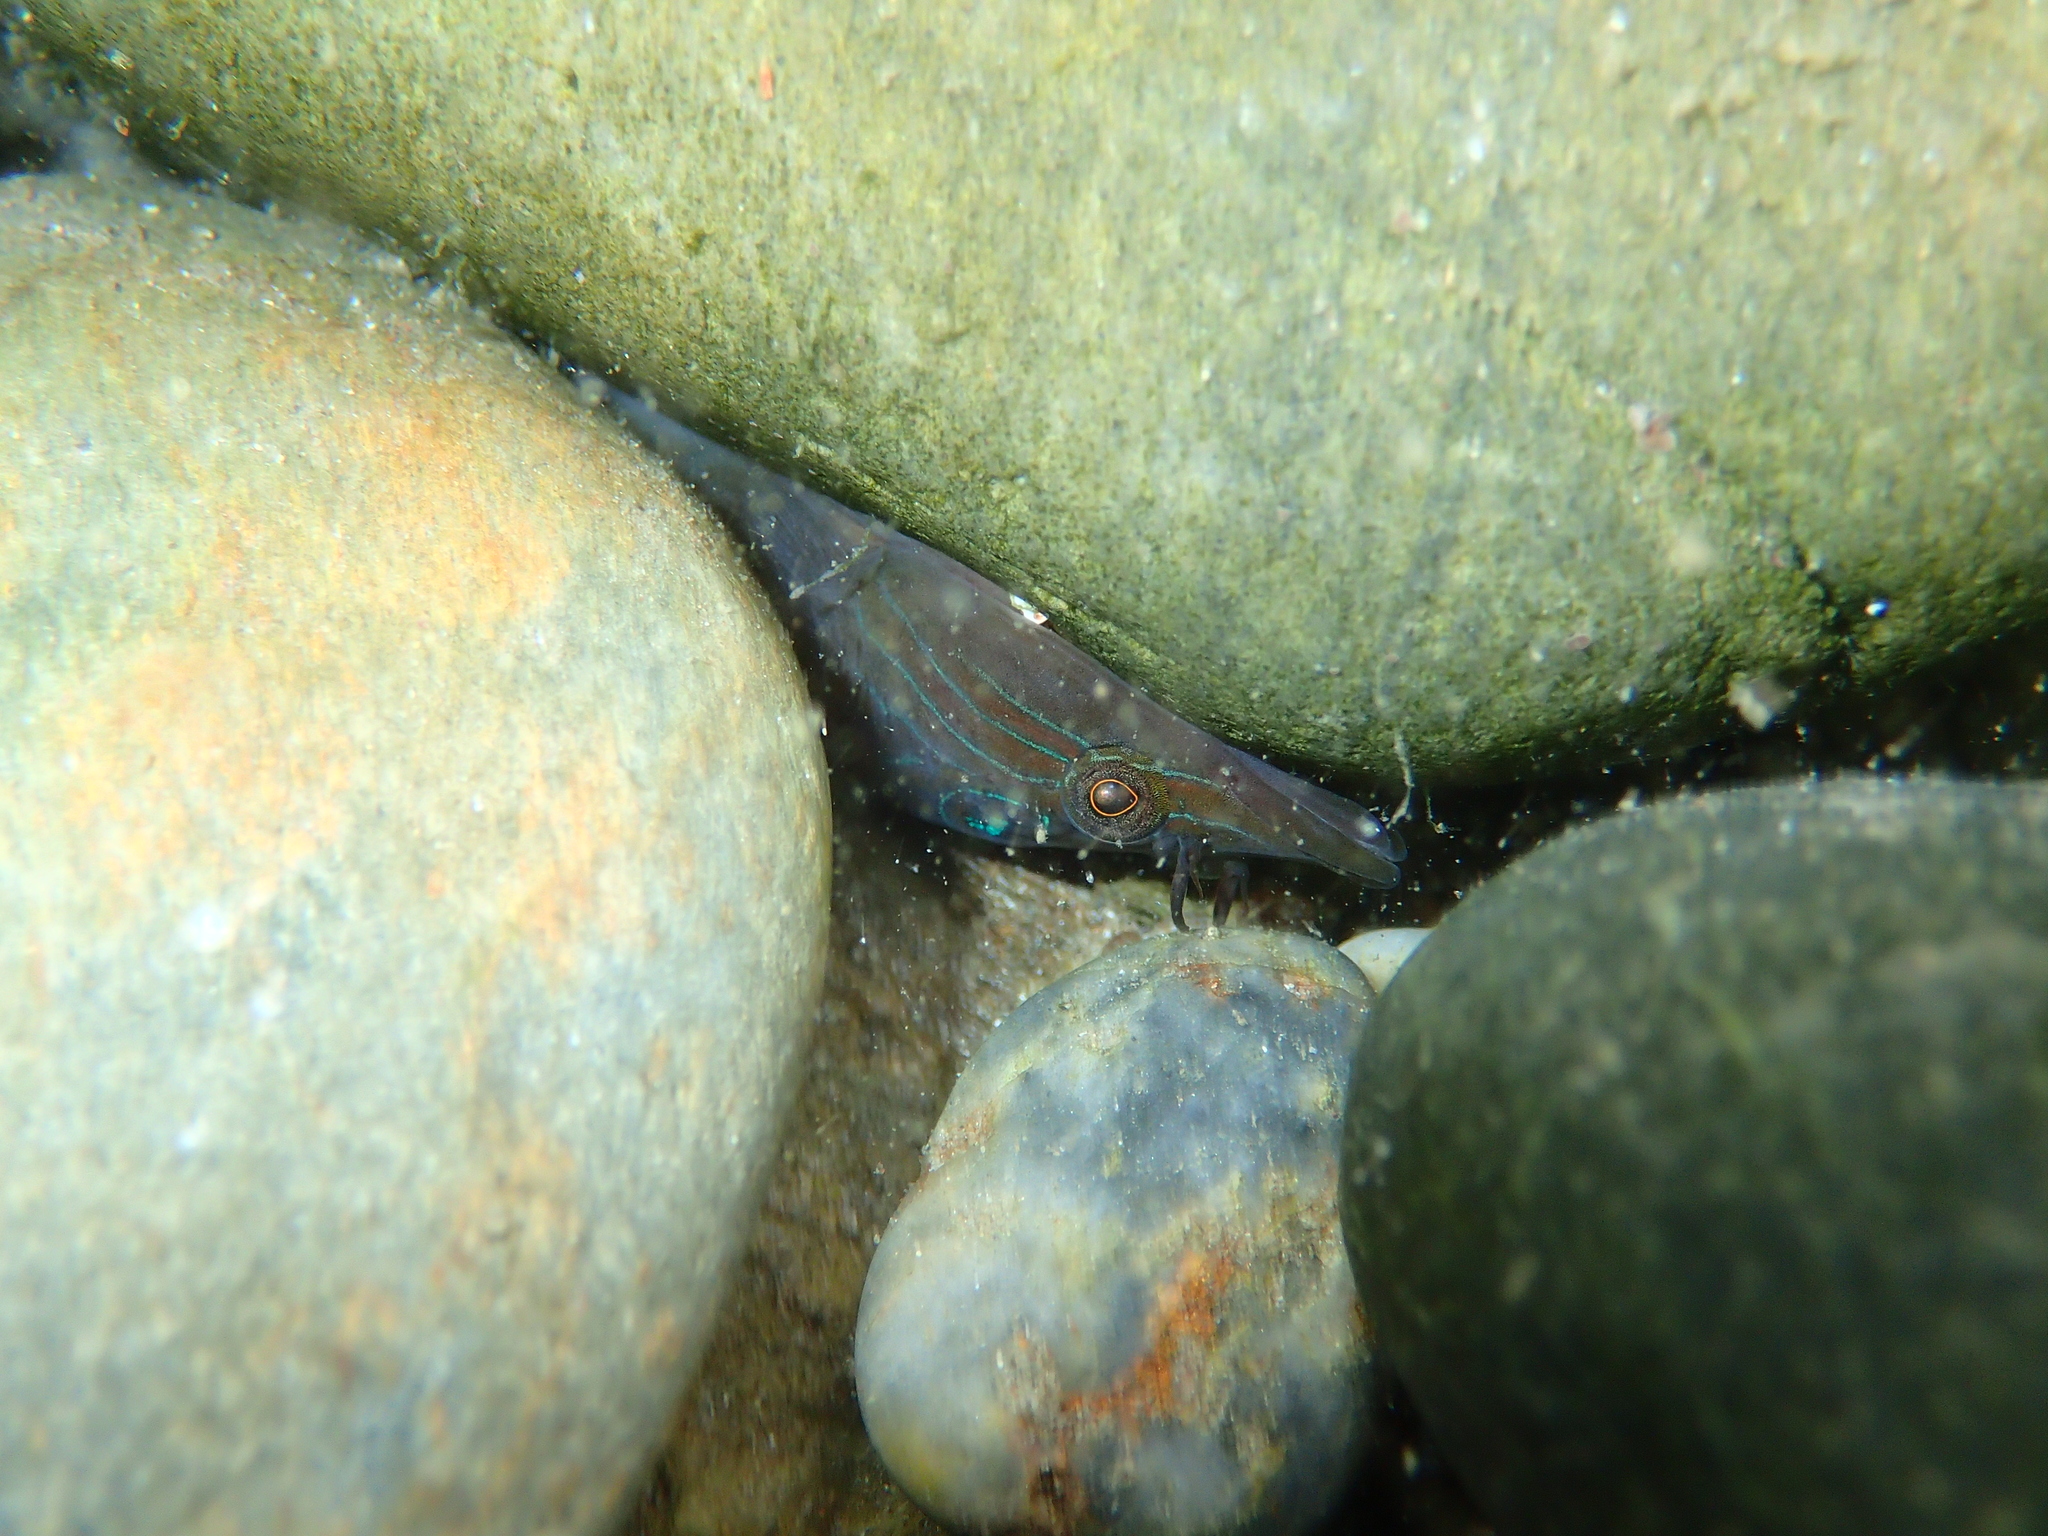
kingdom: Animalia
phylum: Chordata
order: Gobiesociformes
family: Gobiesocidae
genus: Lepadogaster
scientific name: Lepadogaster lepadogaster
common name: Cornish sucker
